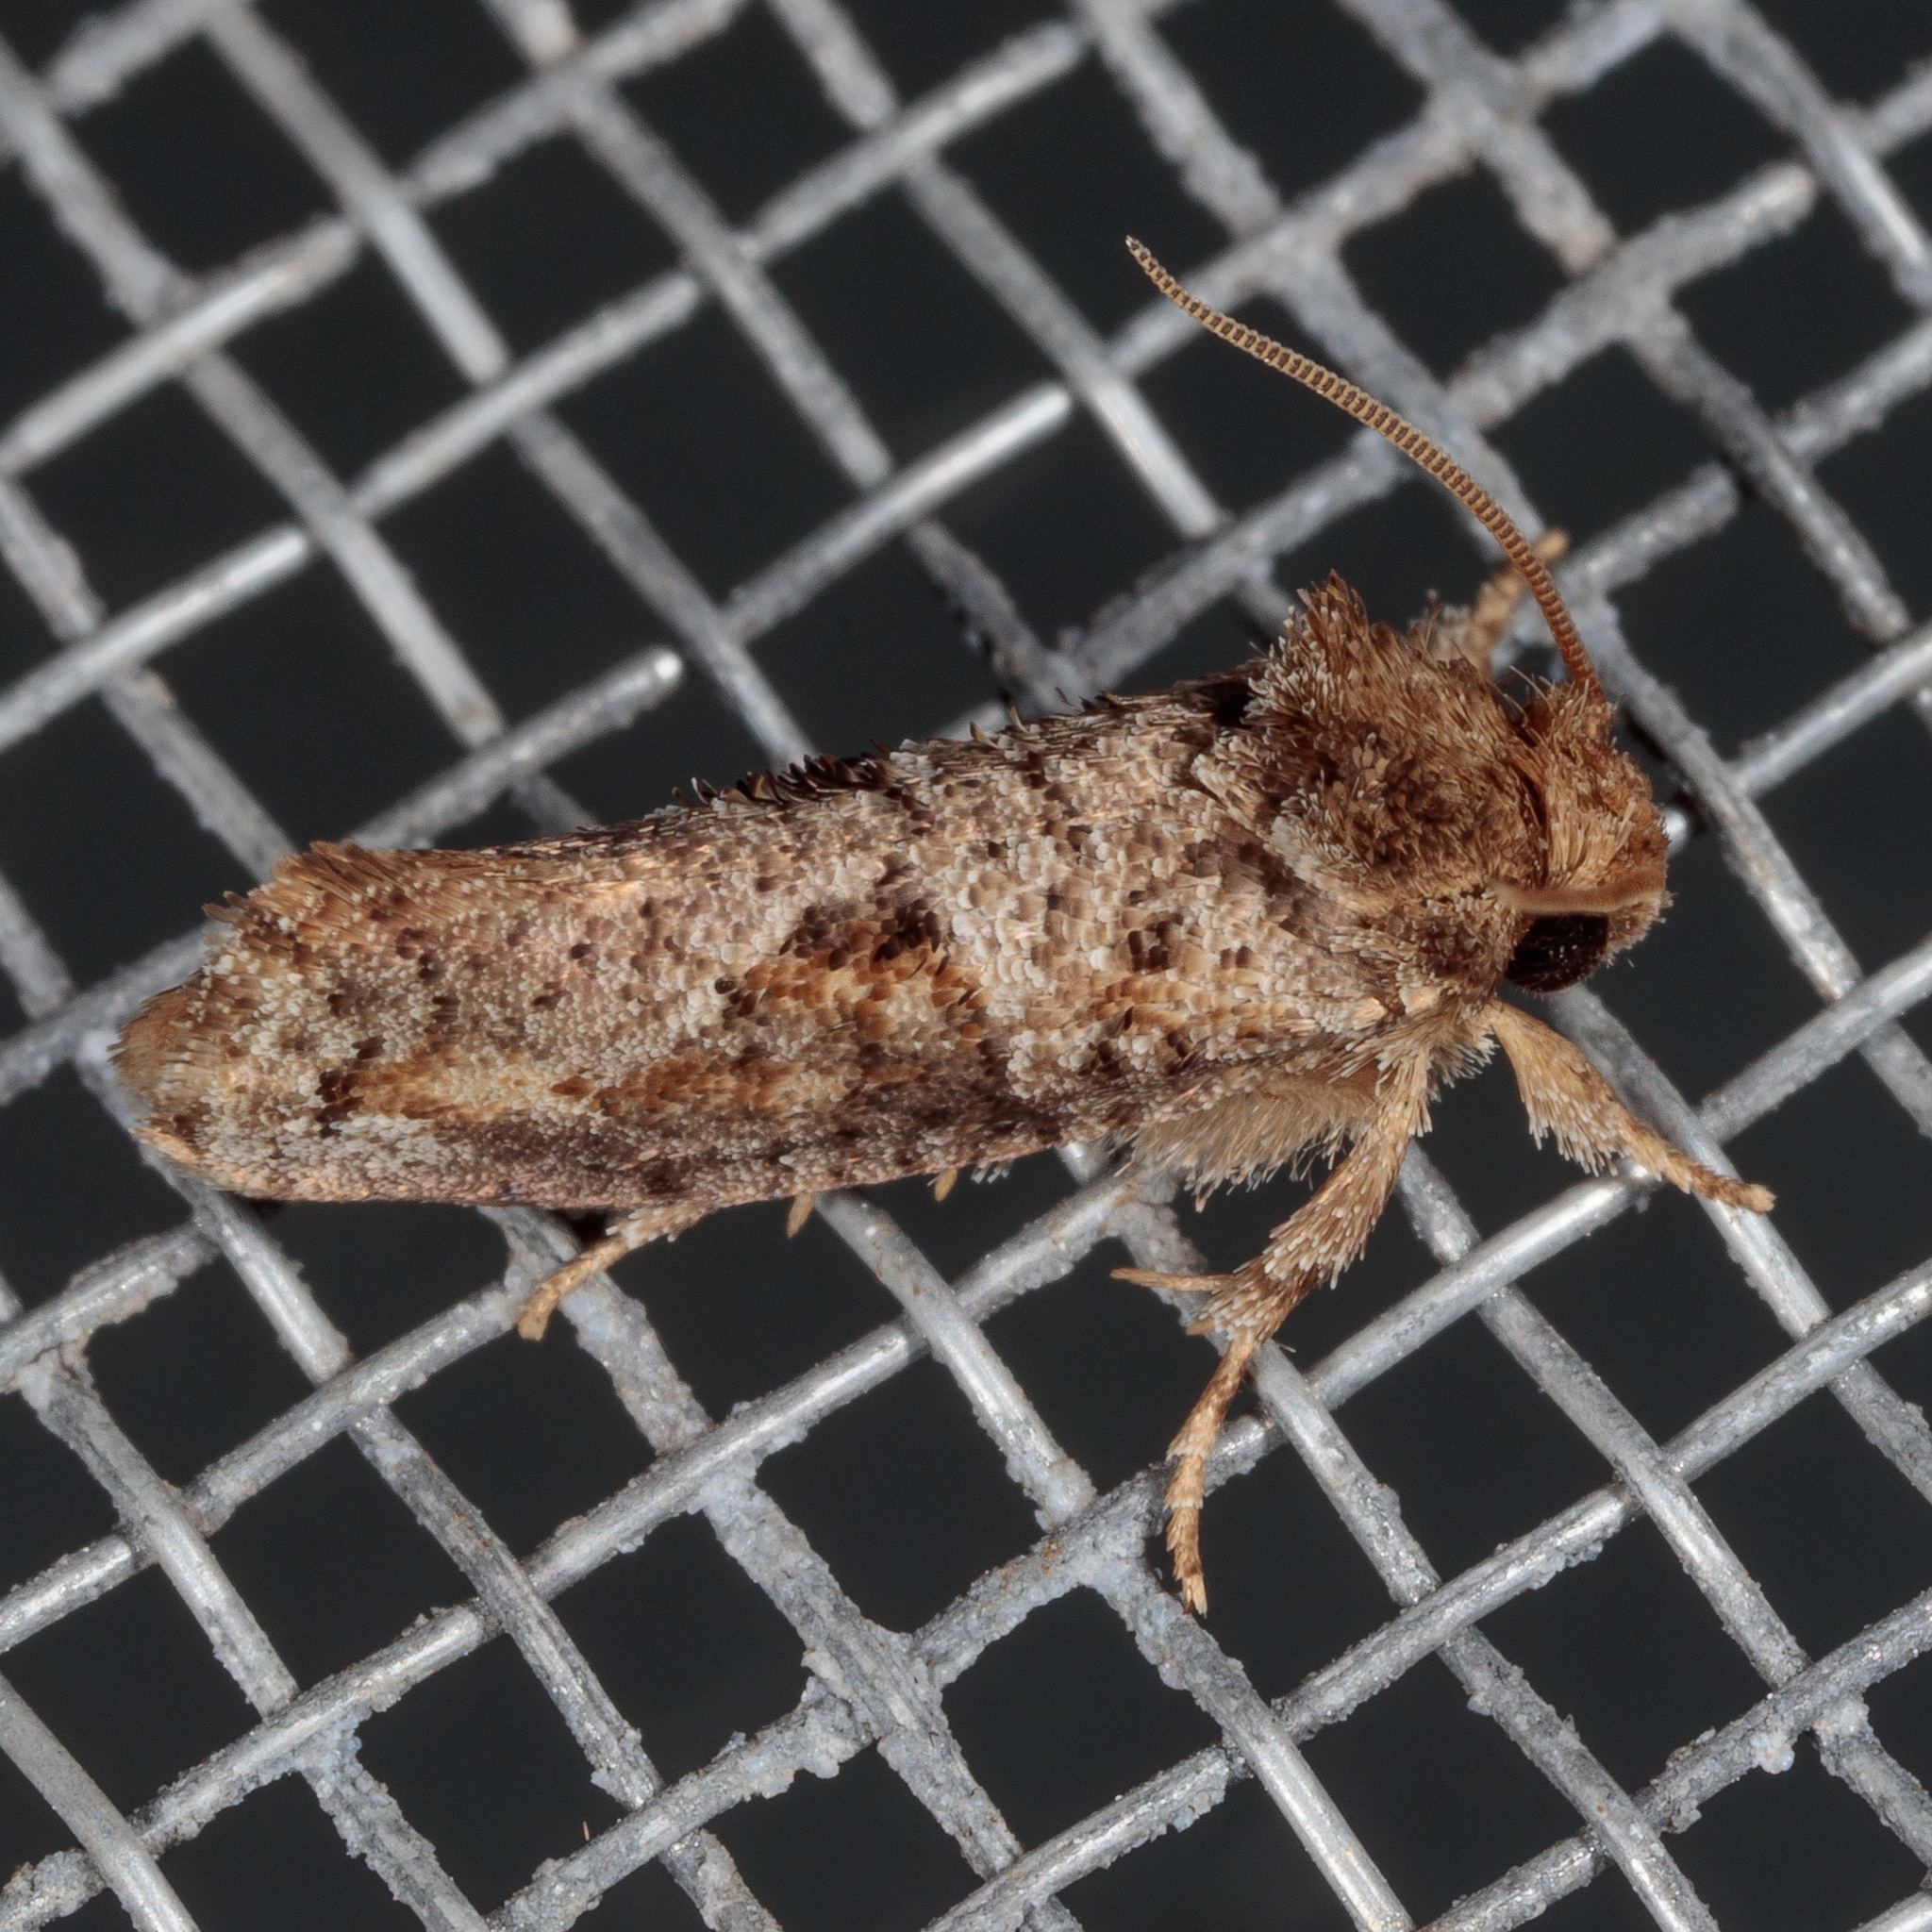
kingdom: Animalia
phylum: Arthropoda
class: Insecta
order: Lepidoptera
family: Tineidae
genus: Acrolophus
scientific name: Acrolophus piger
